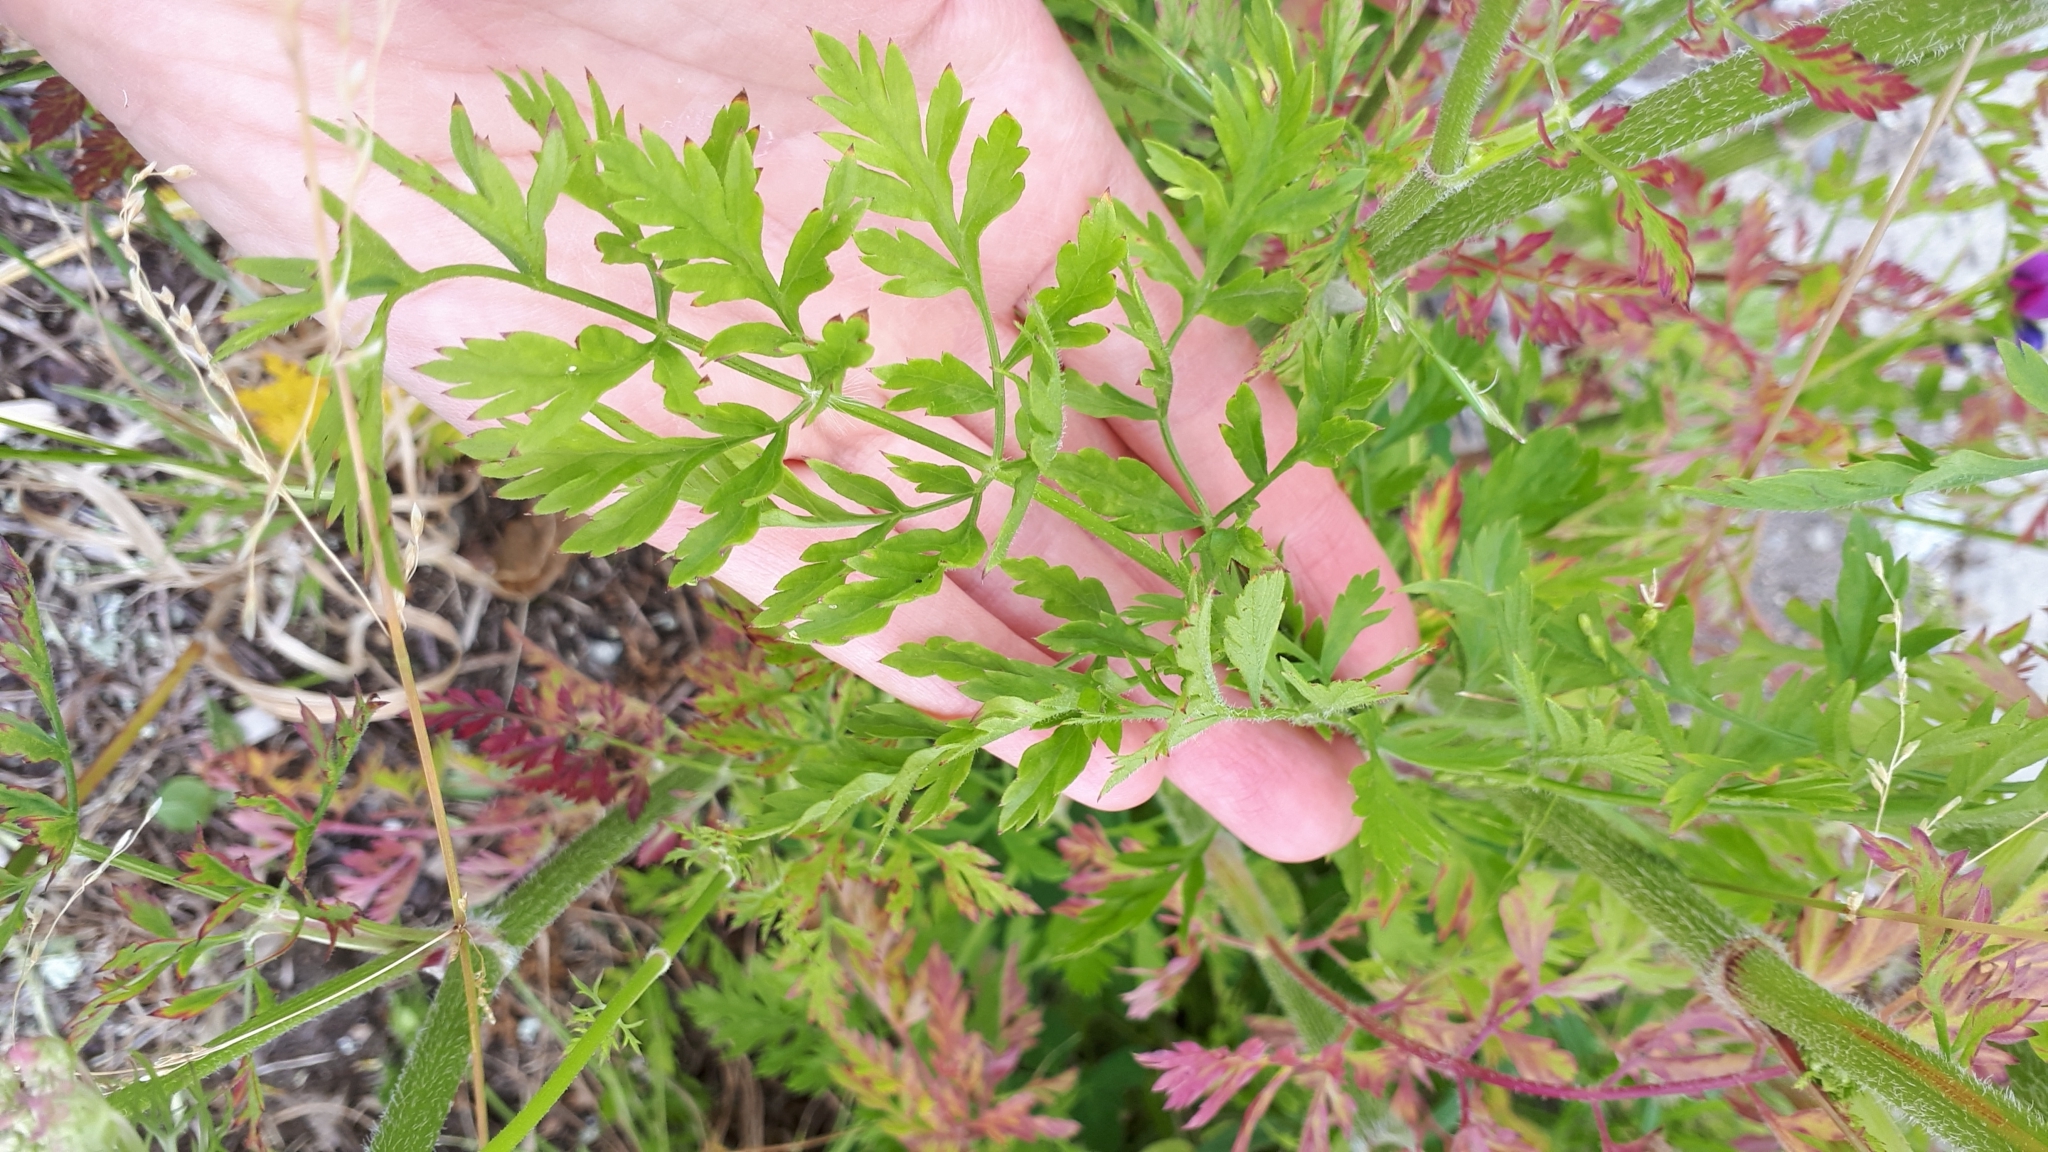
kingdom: Plantae
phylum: Tracheophyta
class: Magnoliopsida
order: Apiales
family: Apiaceae
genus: Daucus
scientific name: Daucus carota
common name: Wild carrot
